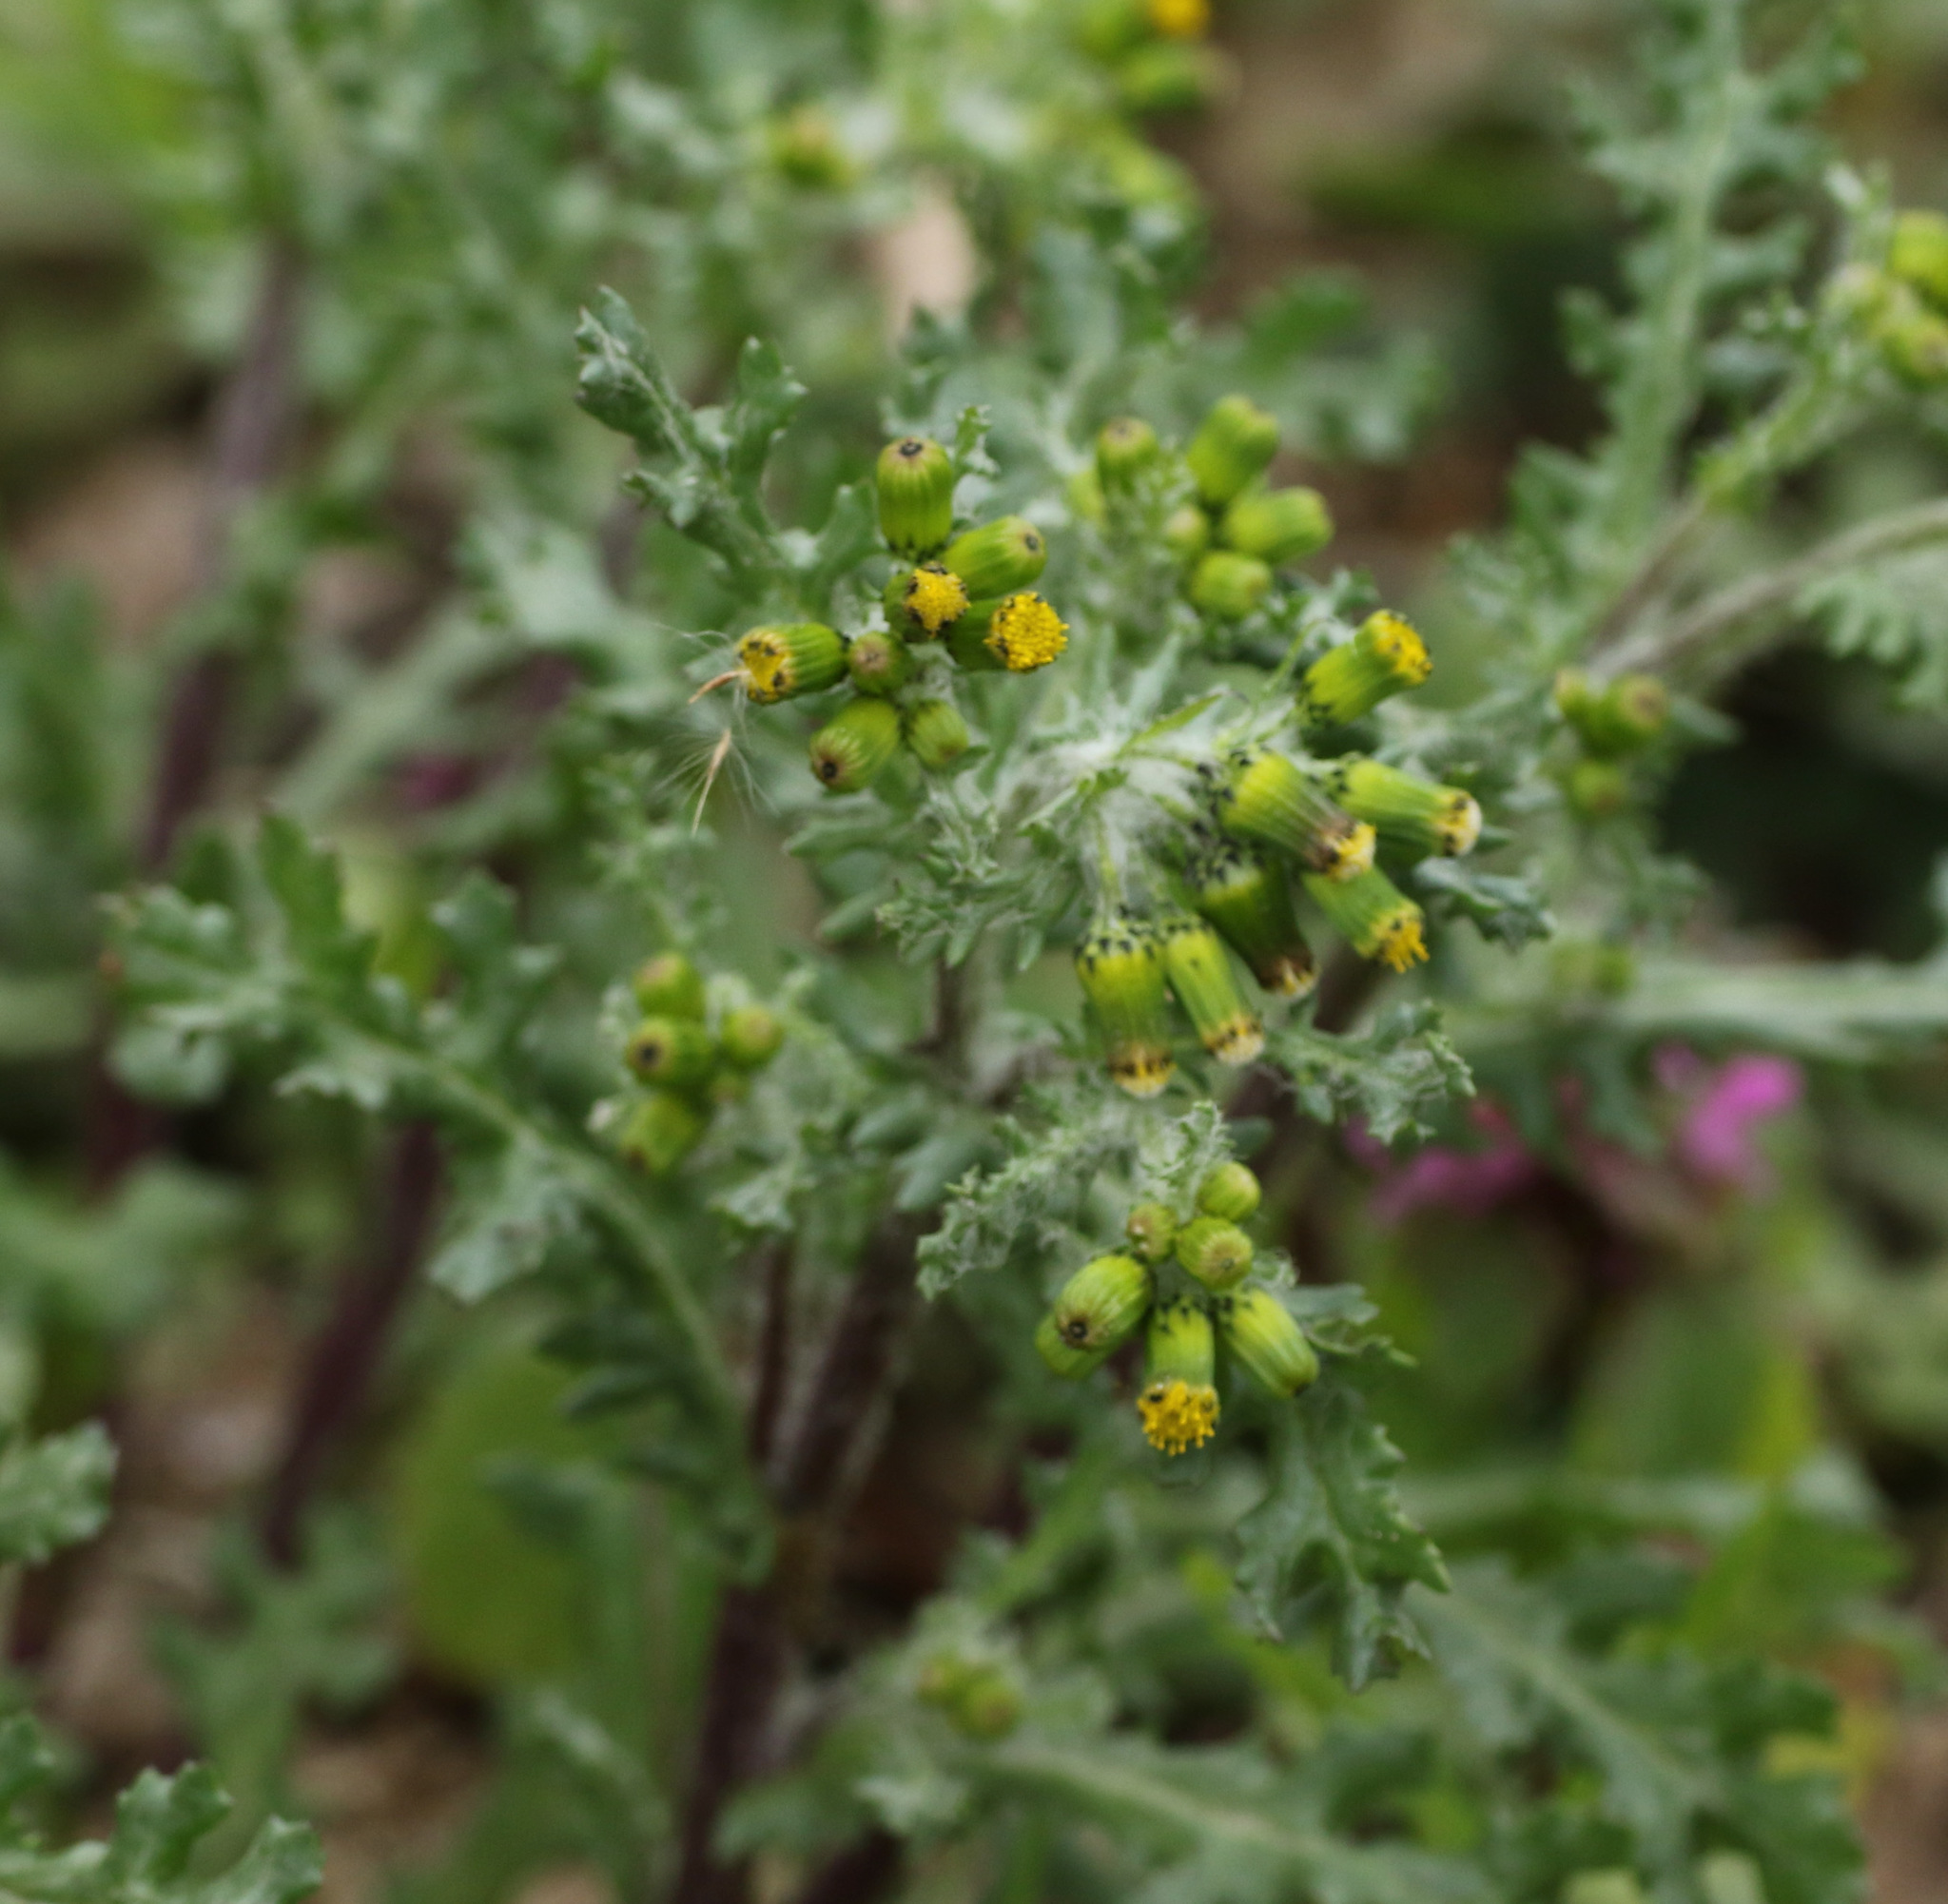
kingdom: Plantae
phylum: Tracheophyta
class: Magnoliopsida
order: Asterales
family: Asteraceae
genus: Senecio
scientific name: Senecio vulgaris
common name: Old-man-in-the-spring
